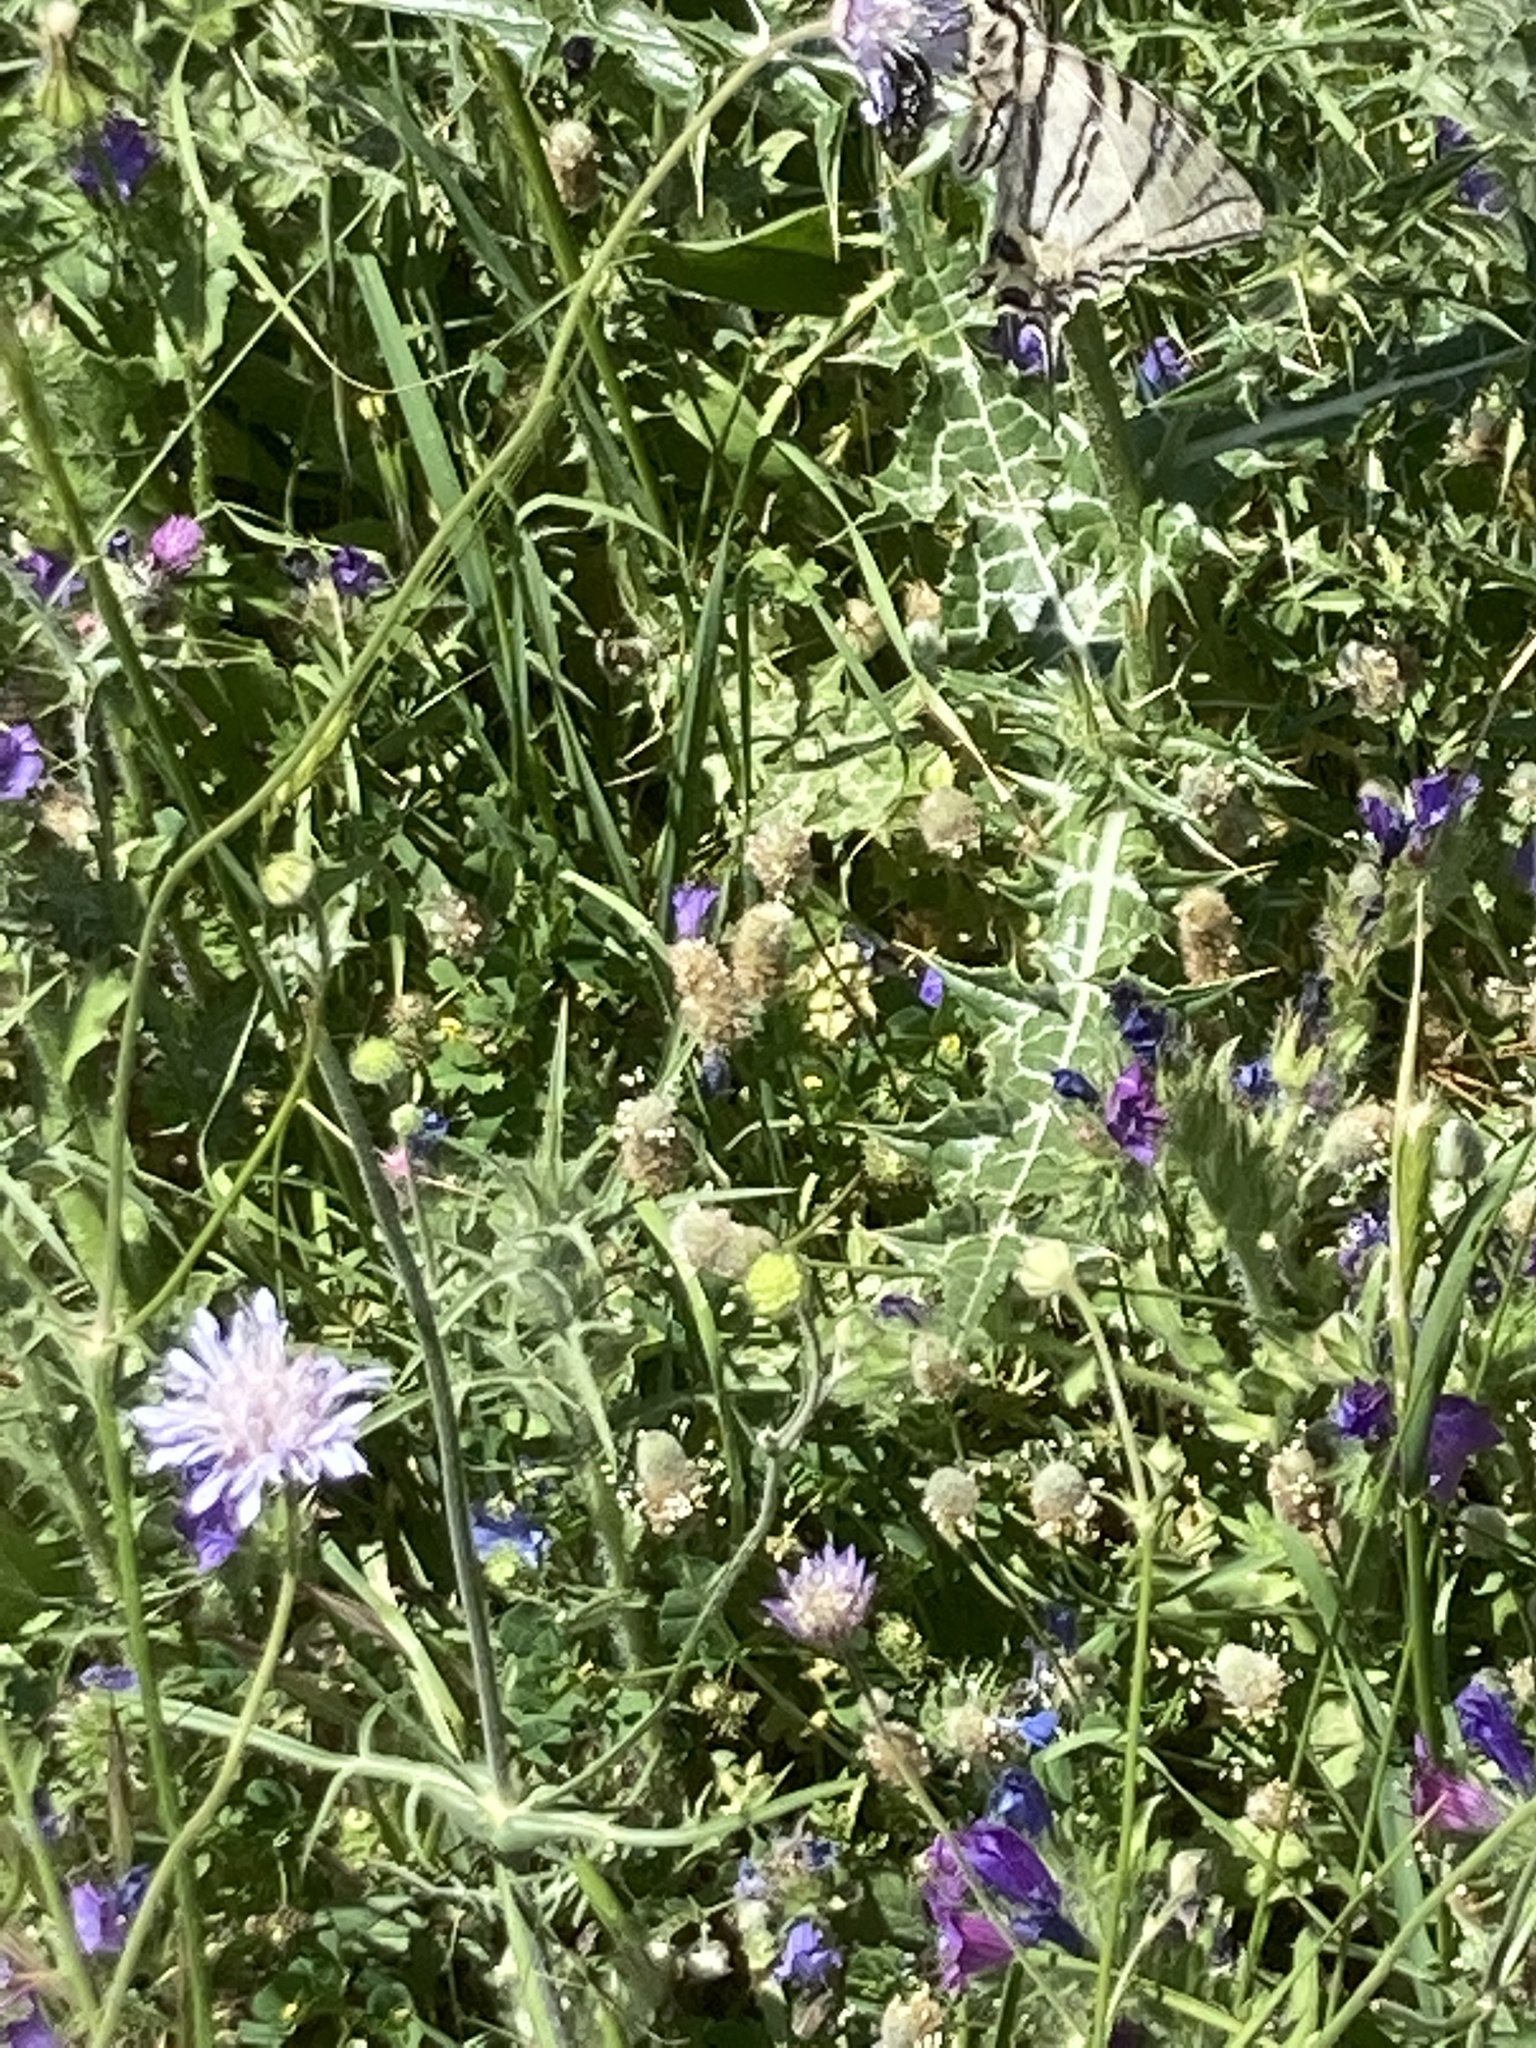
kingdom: Animalia
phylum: Arthropoda
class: Insecta
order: Lepidoptera
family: Papilionidae
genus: Iphiclides
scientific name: Iphiclides podalirius
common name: Scarce swallowtail
